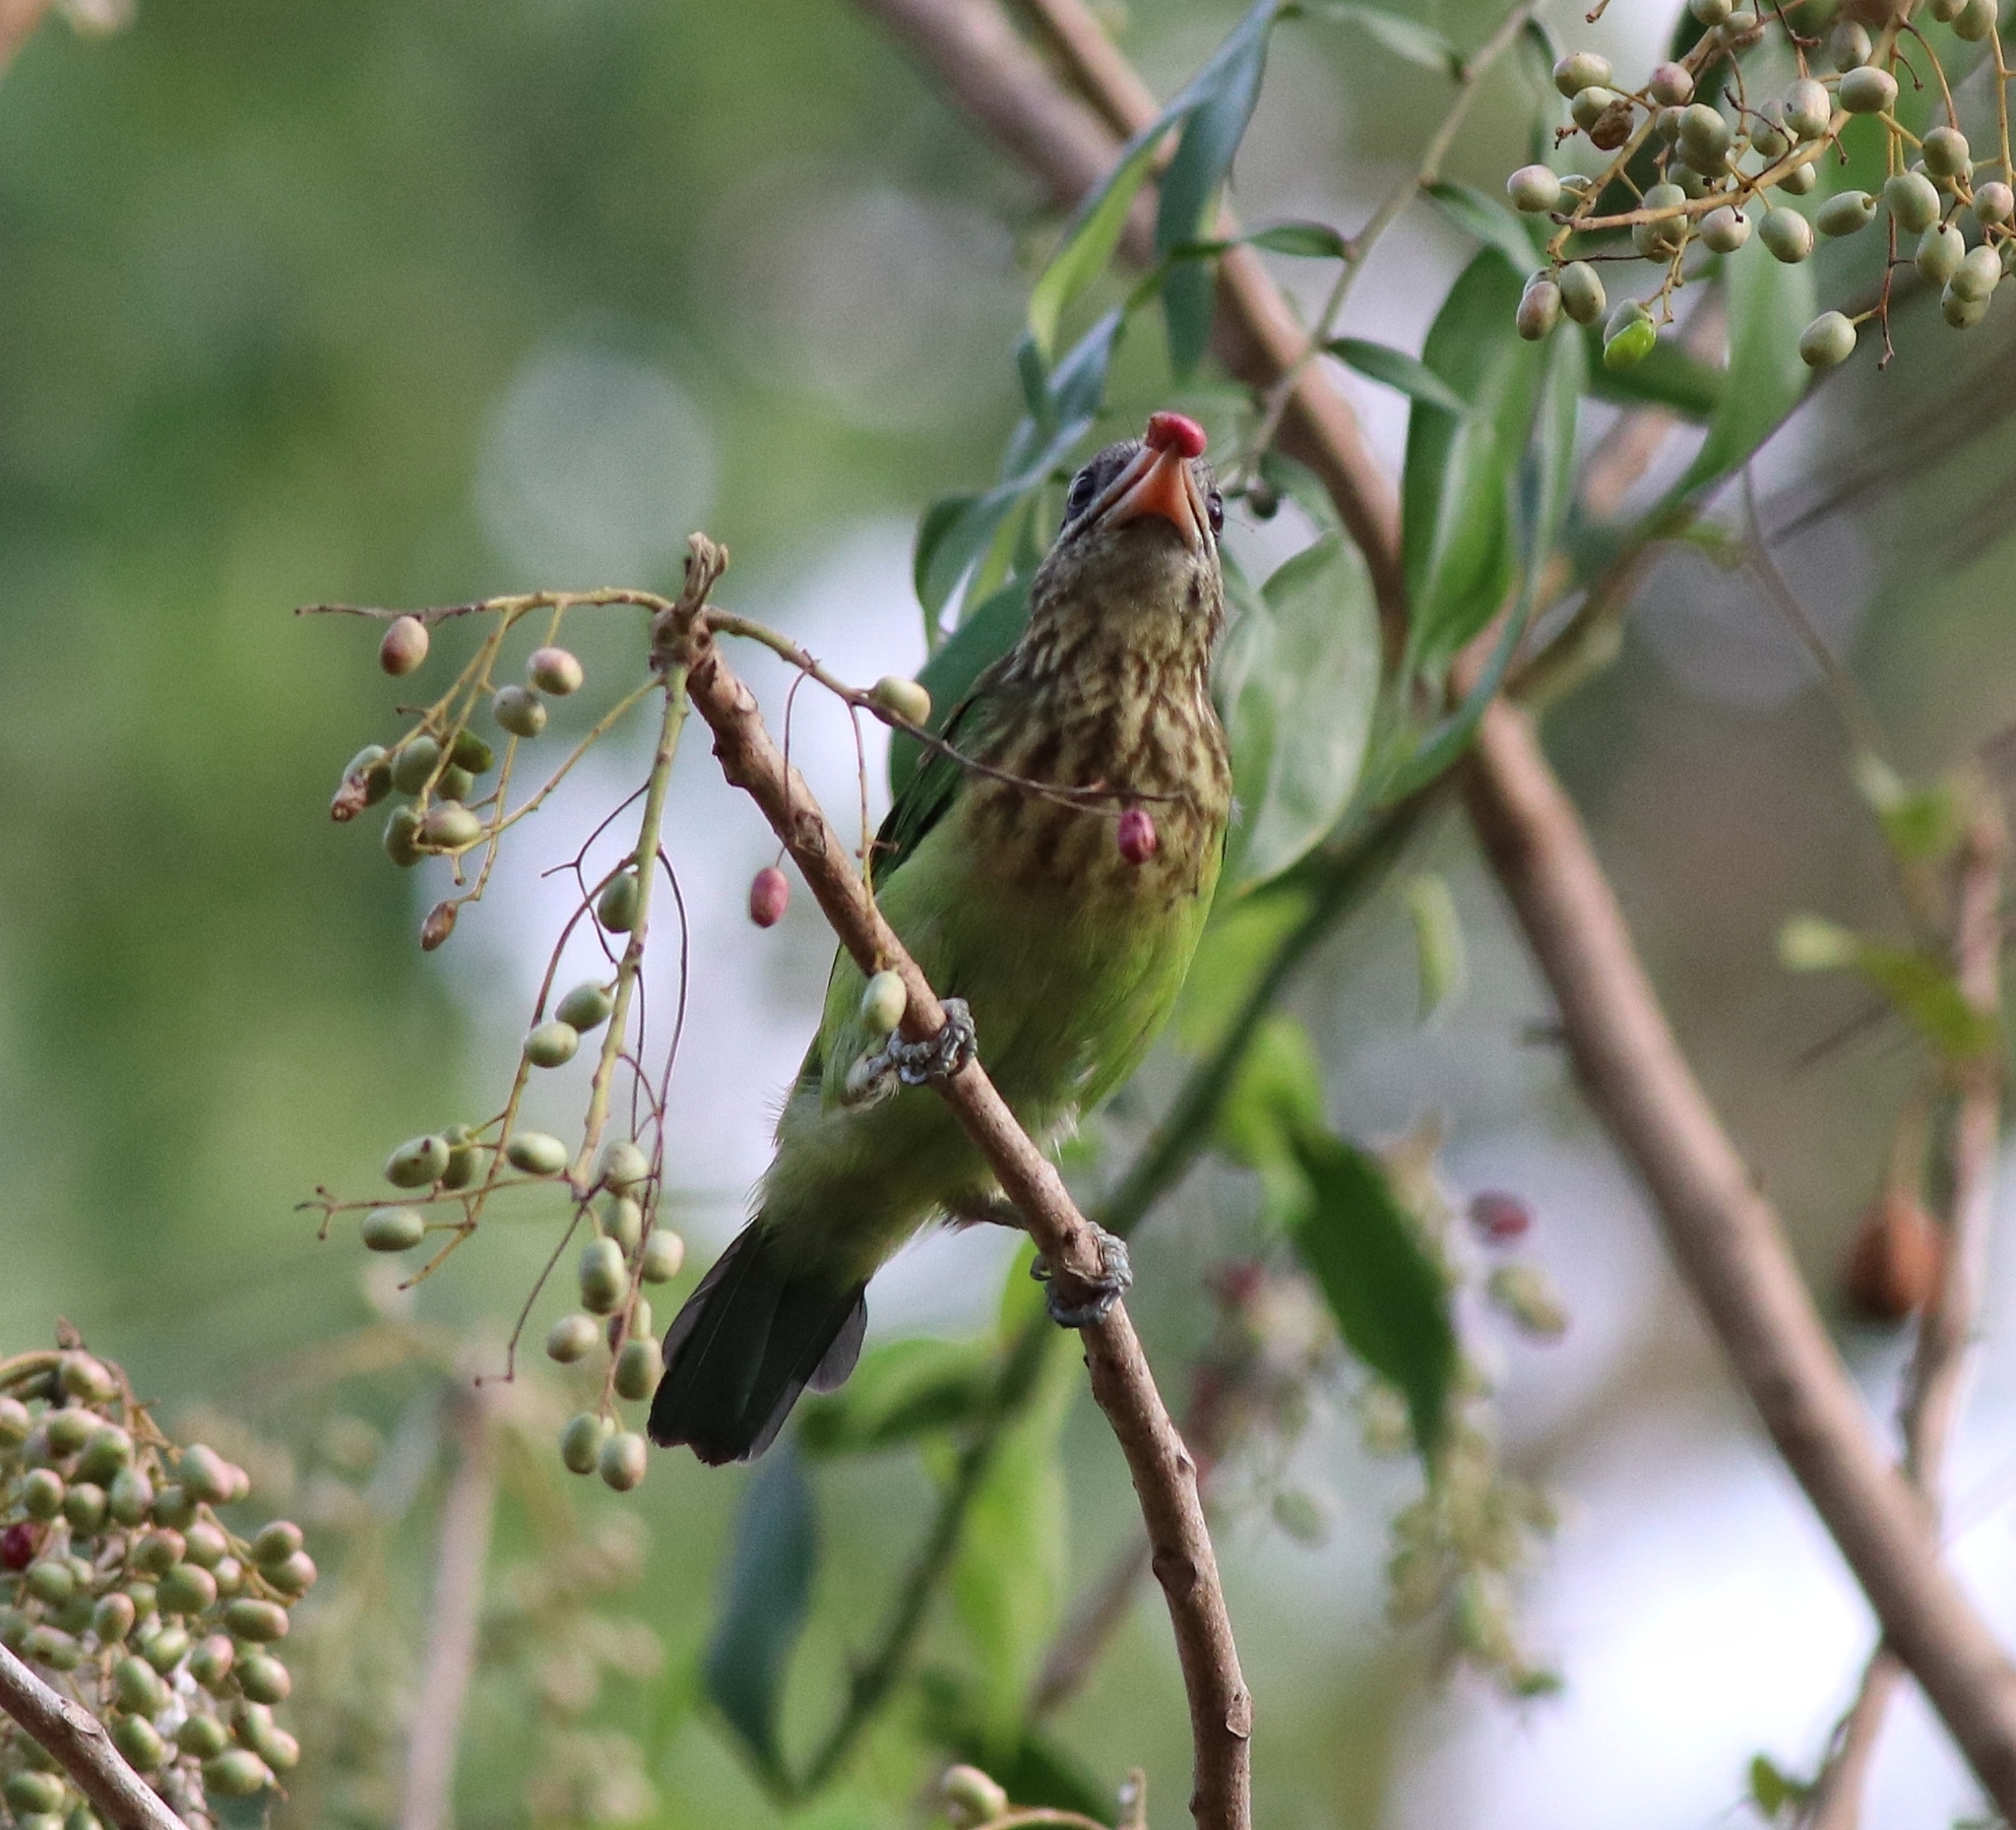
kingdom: Animalia
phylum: Chordata
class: Aves
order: Piciformes
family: Megalaimidae
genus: Psilopogon
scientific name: Psilopogon viridis
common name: White-cheeked barbet
